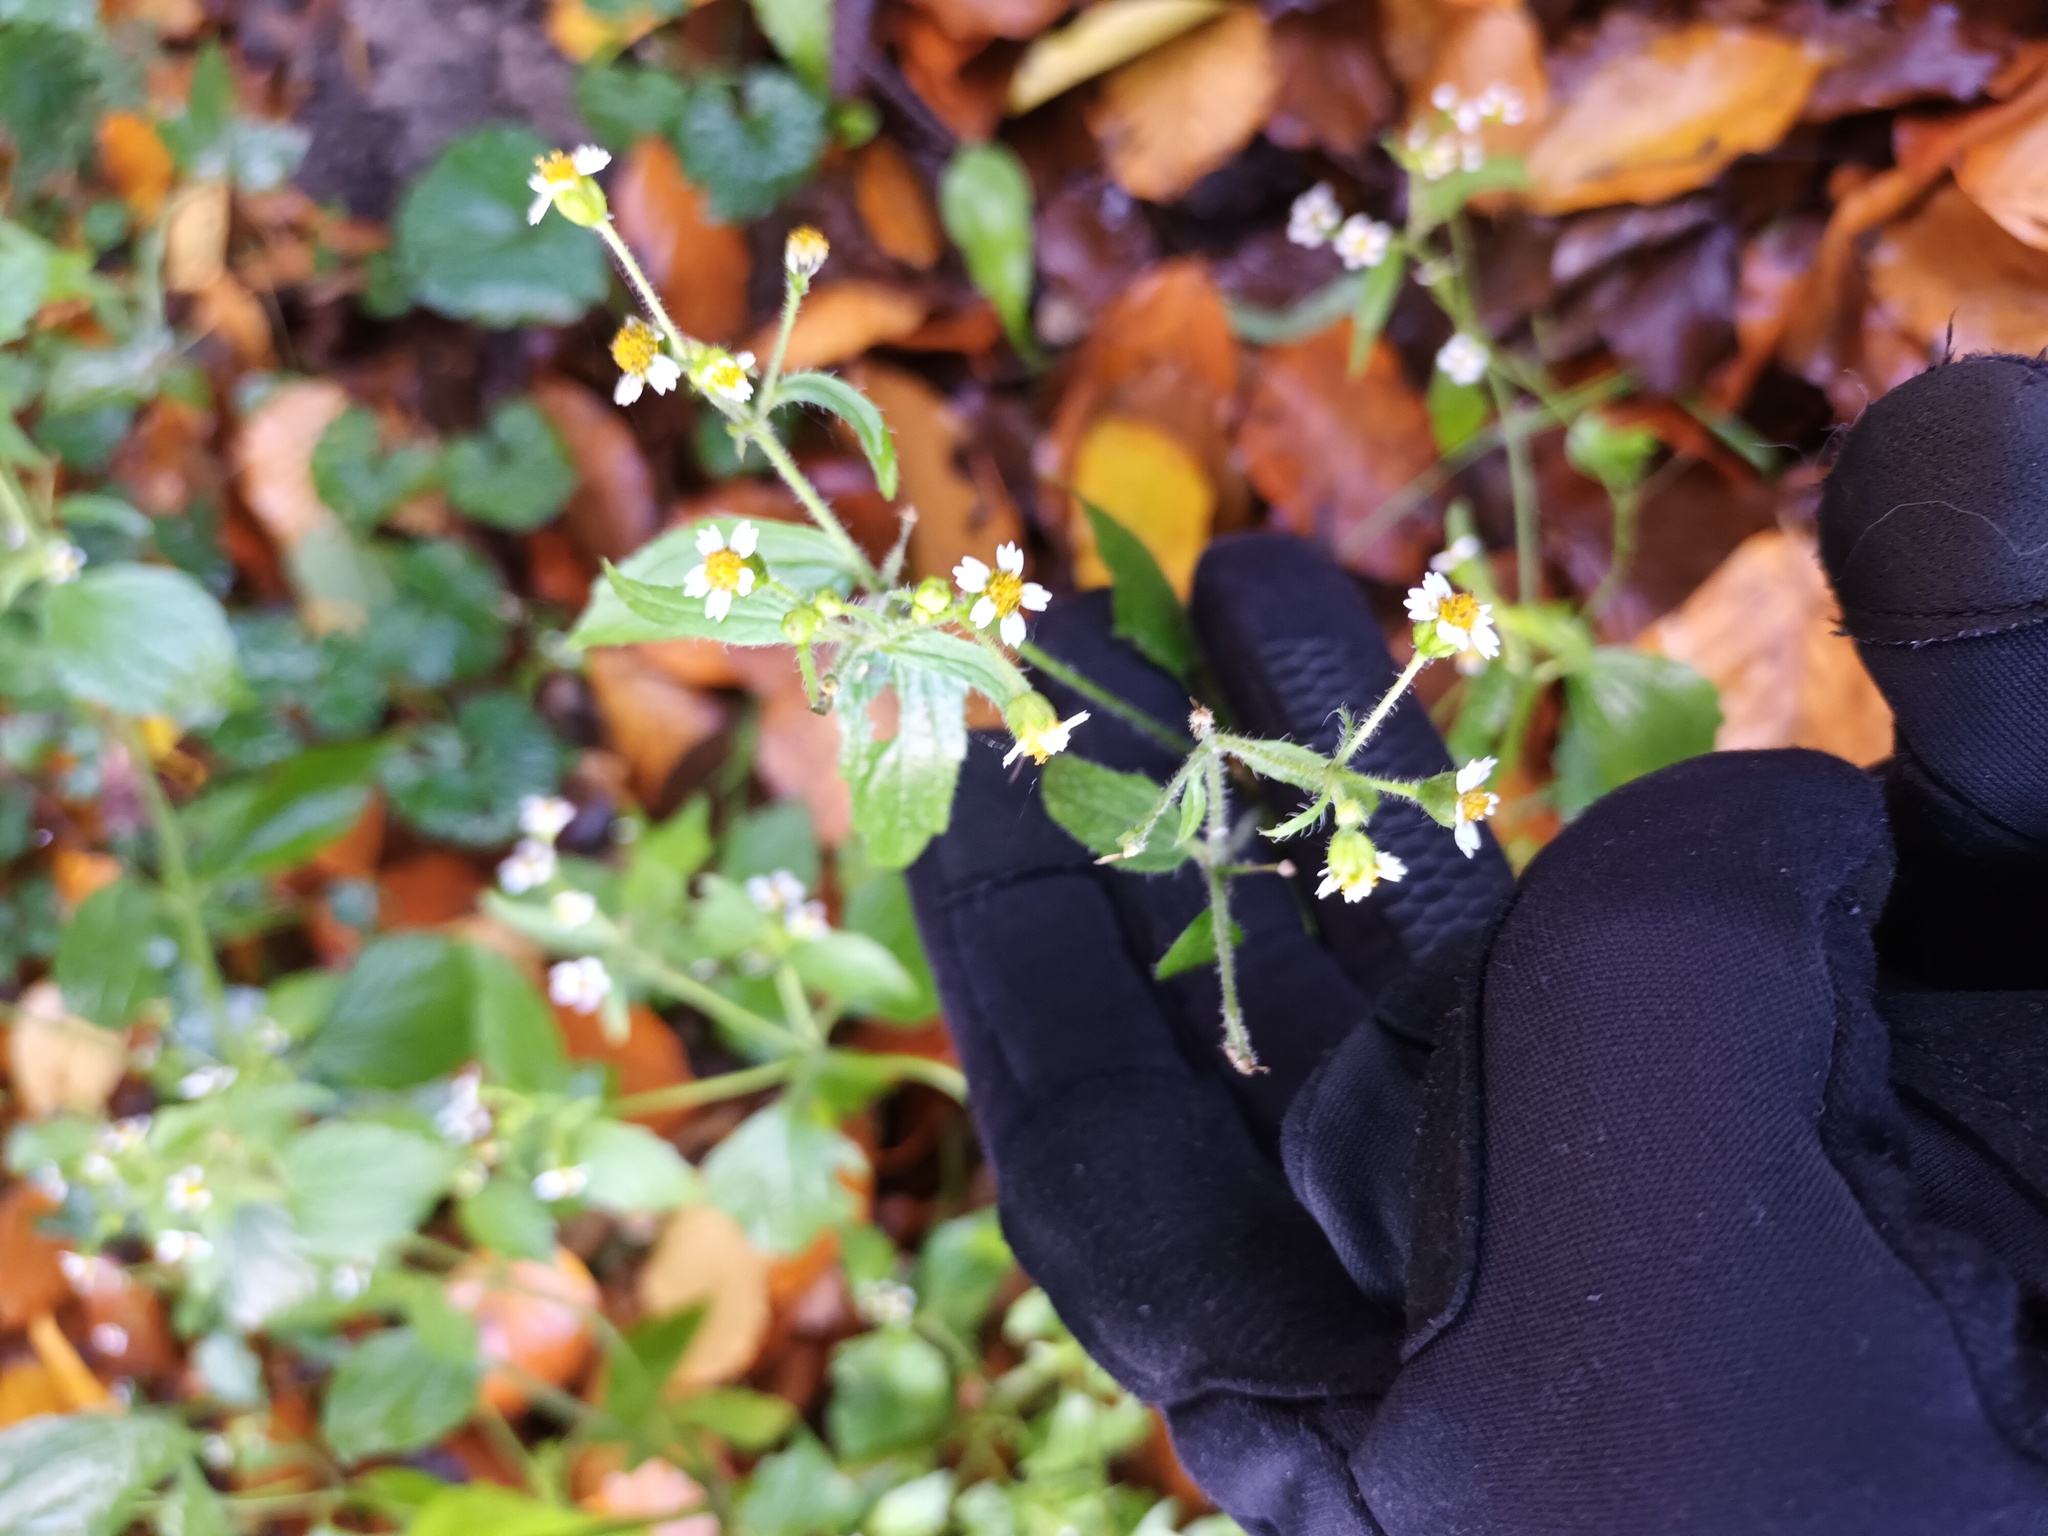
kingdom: Plantae
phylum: Tracheophyta
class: Magnoliopsida
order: Asterales
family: Asteraceae
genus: Galinsoga
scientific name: Galinsoga quadriradiata
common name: Shaggy soldier
